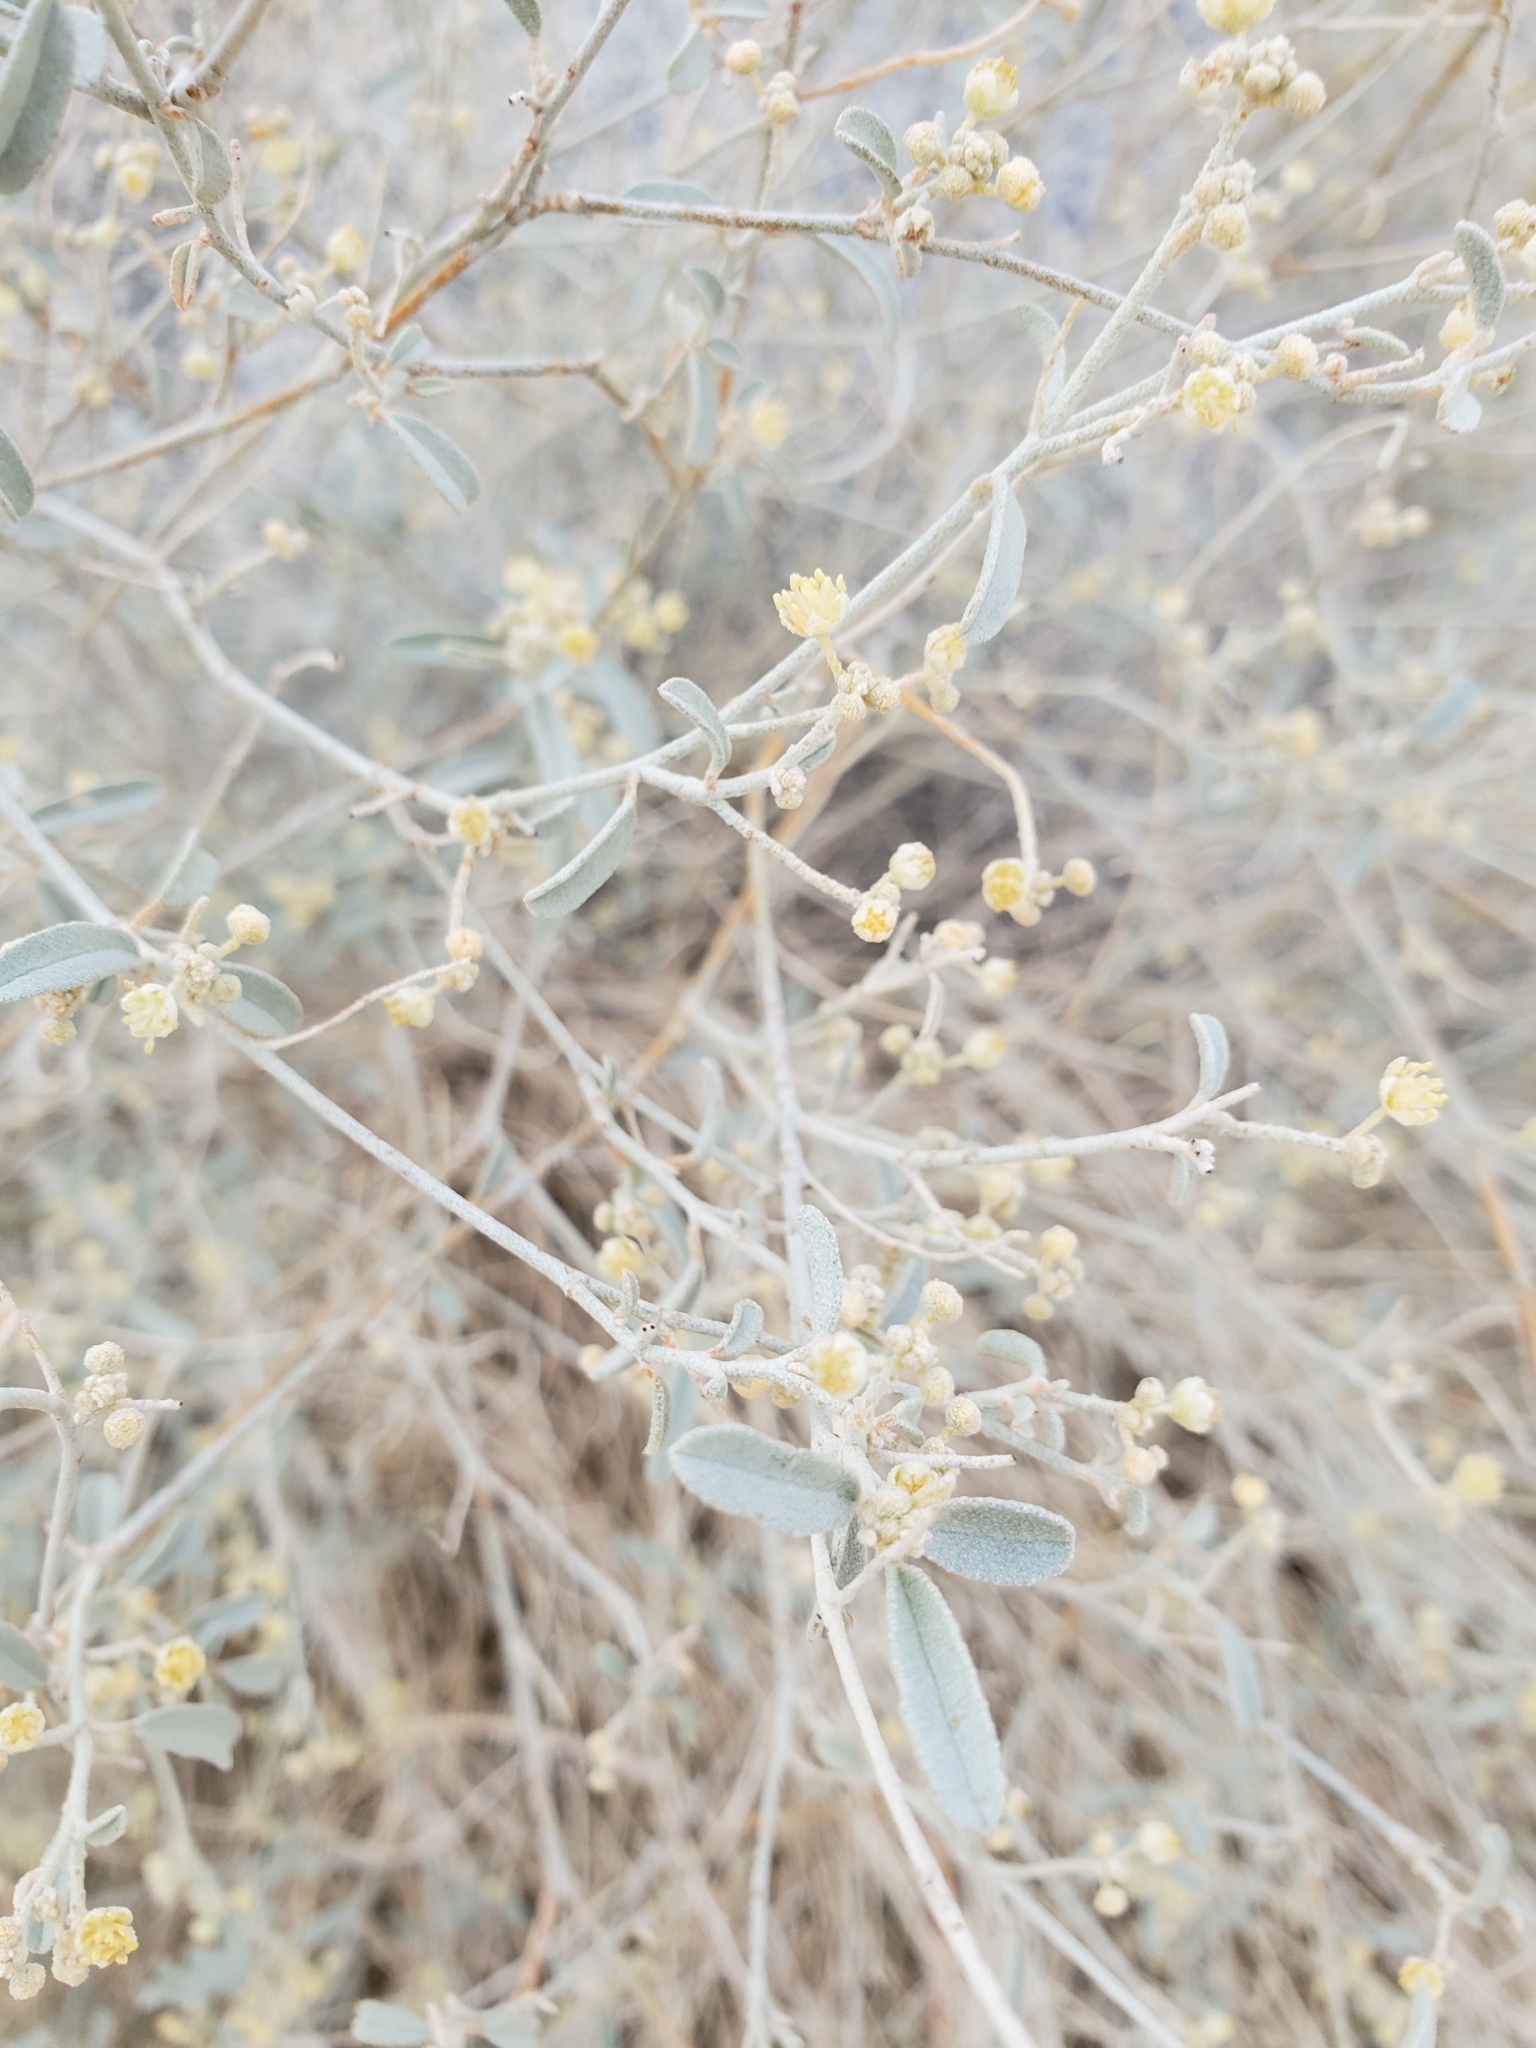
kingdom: Plantae
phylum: Tracheophyta
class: Magnoliopsida
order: Malpighiales
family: Euphorbiaceae
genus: Croton
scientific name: Croton californicus
